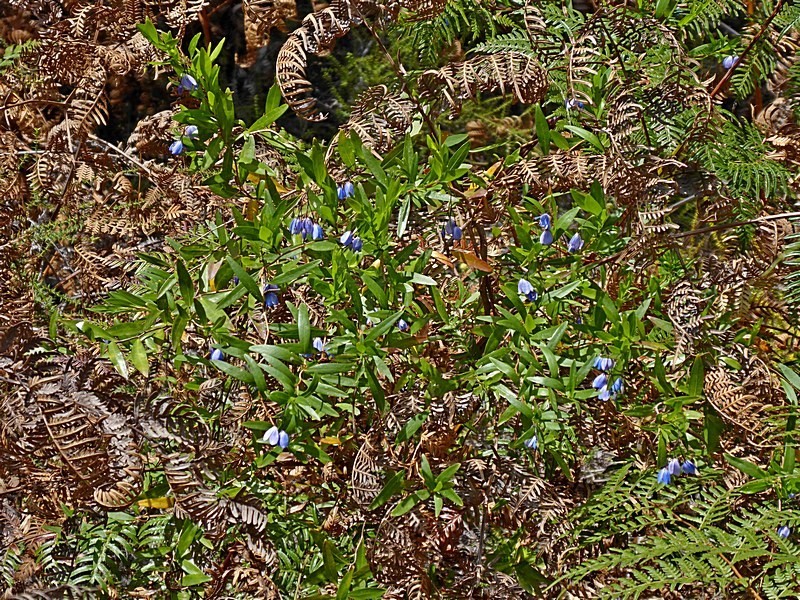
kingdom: Plantae
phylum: Tracheophyta
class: Magnoliopsida
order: Apiales
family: Pittosporaceae
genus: Billardiera
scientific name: Billardiera heterophylla
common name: Bluebell creeper
